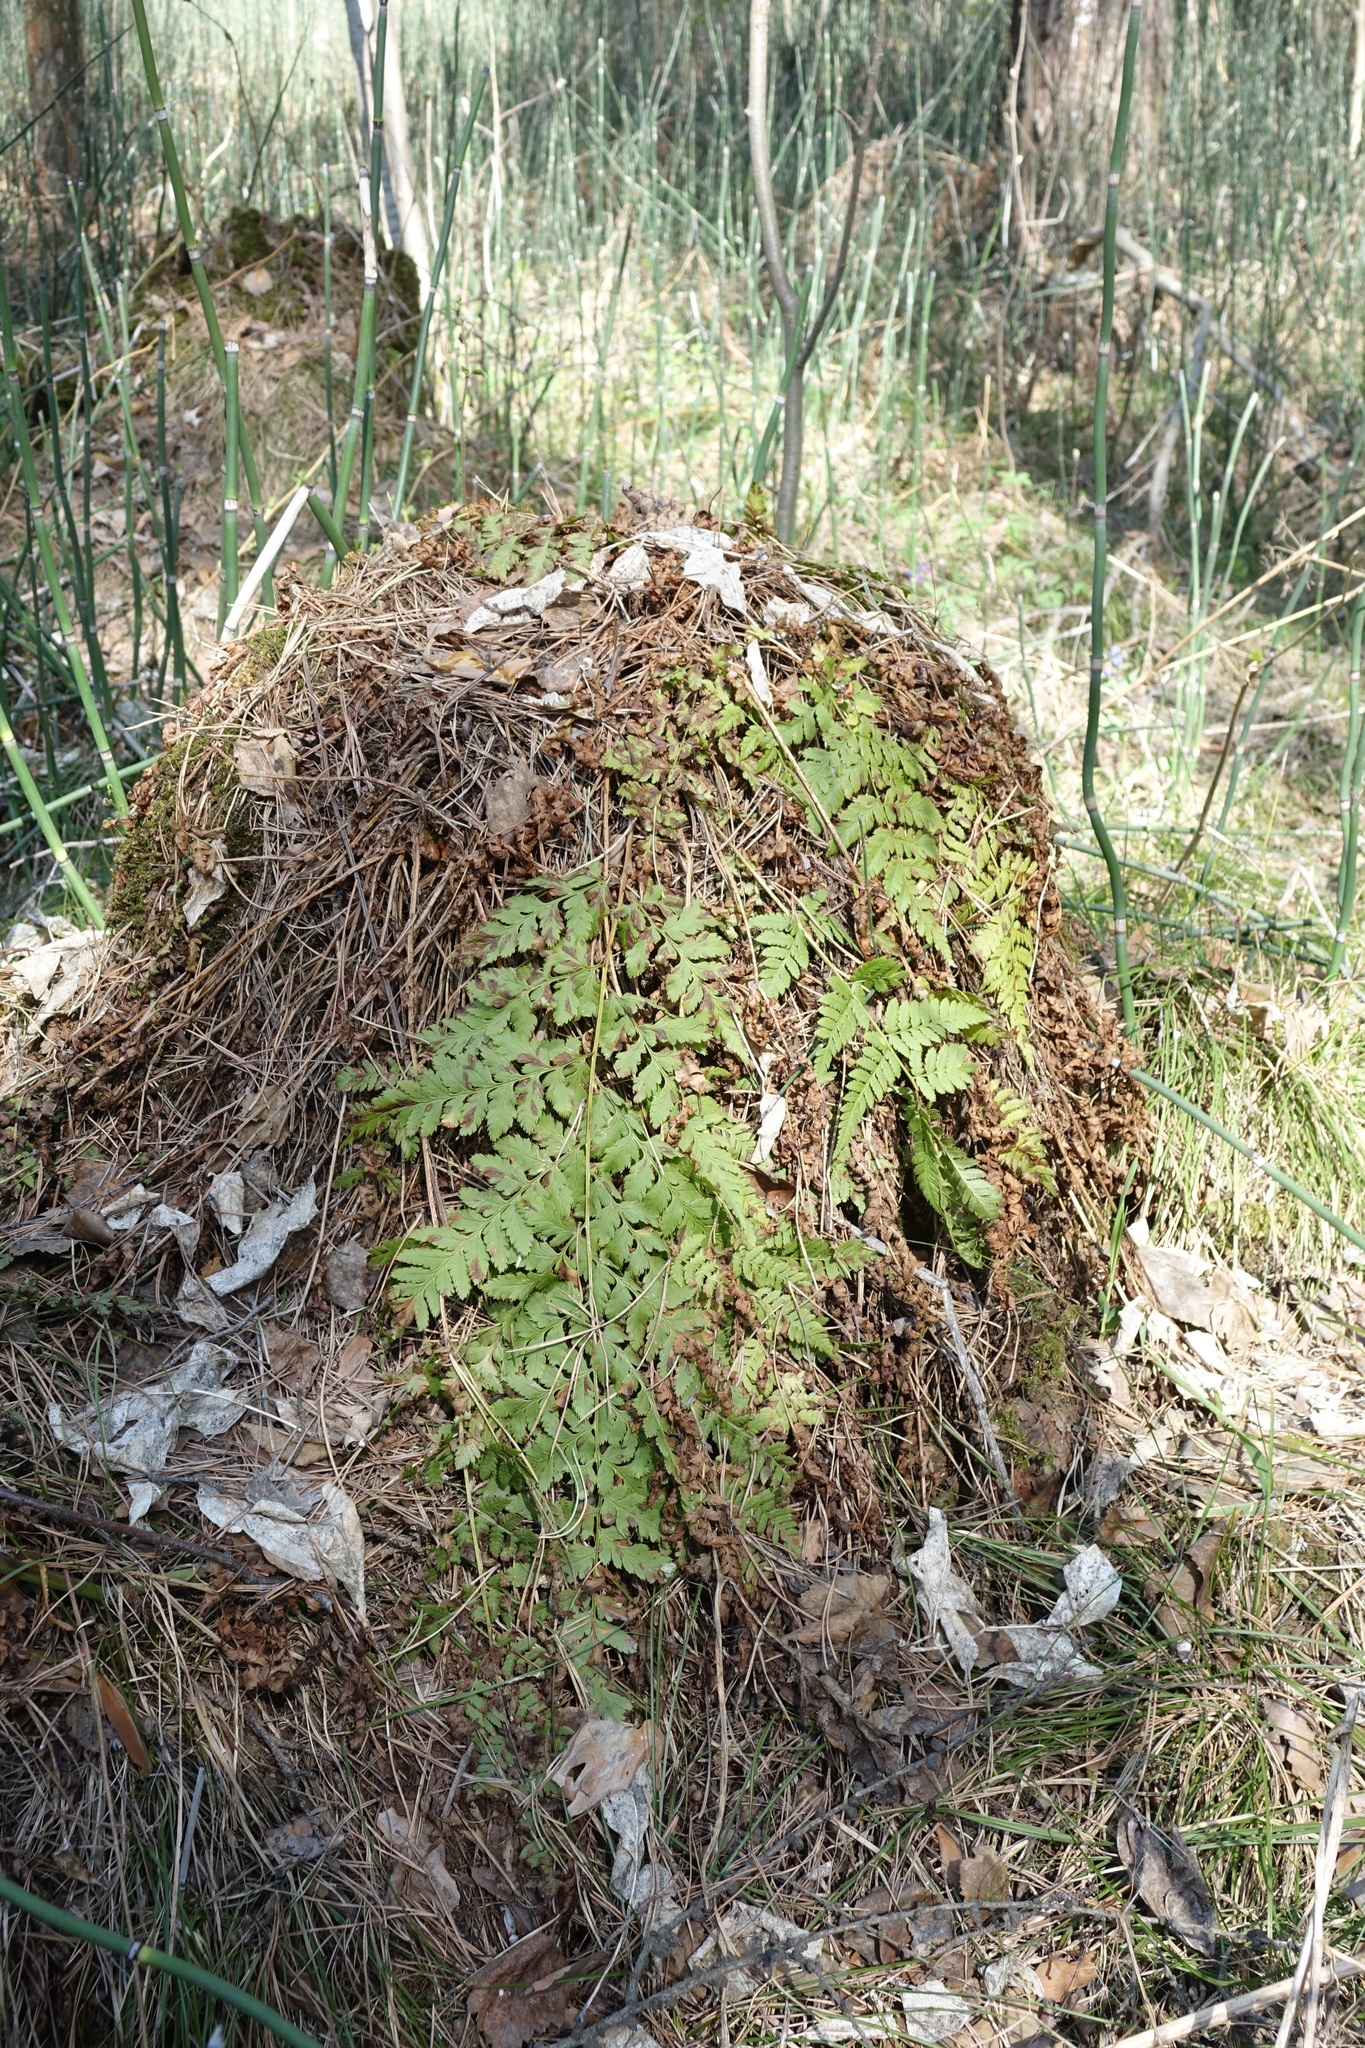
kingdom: Plantae
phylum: Tracheophyta
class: Polypodiopsida
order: Polypodiales
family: Dryopteridaceae
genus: Dryopteris
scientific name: Dryopteris carthusiana
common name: Narrow buckler-fern
